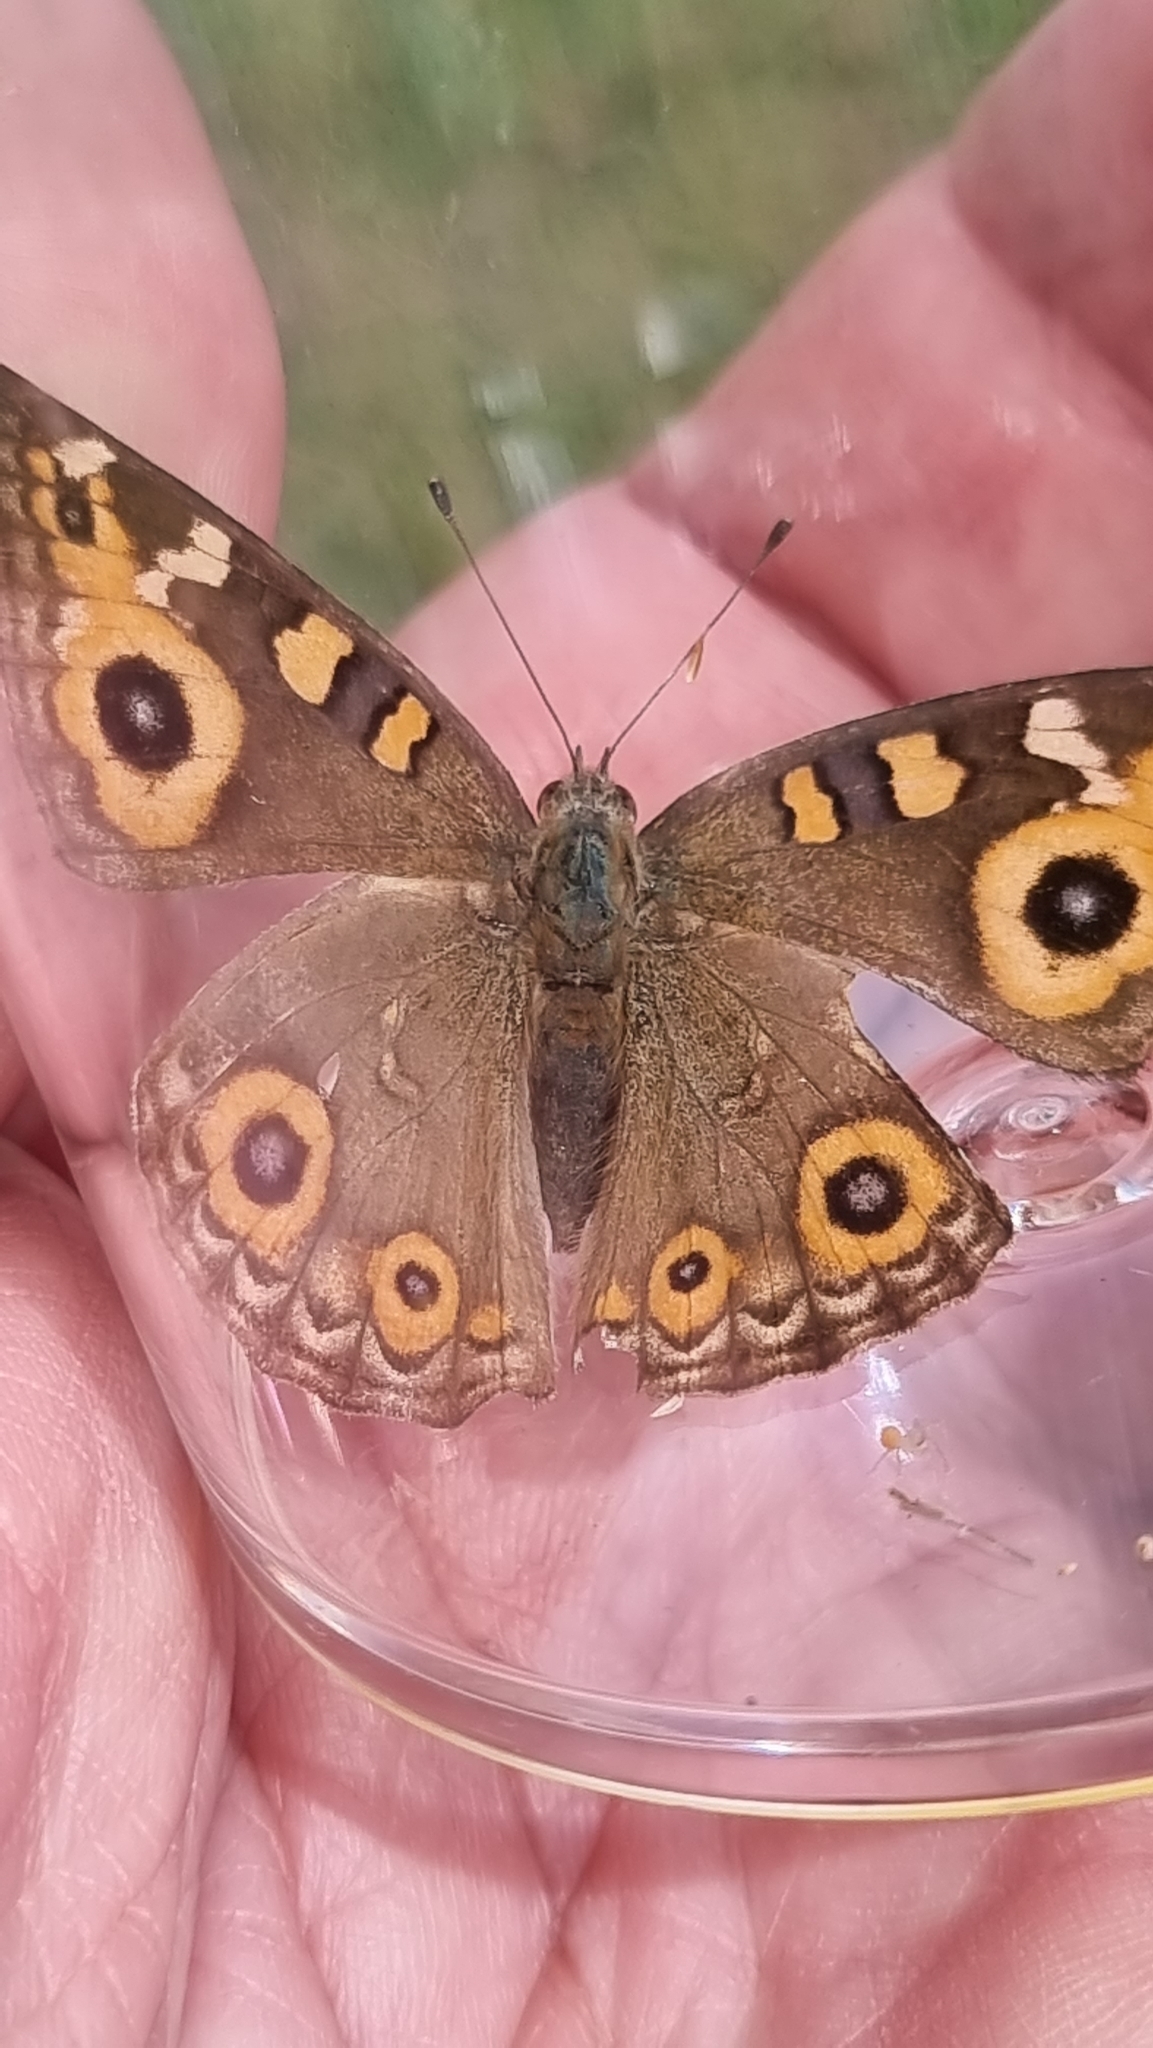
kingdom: Animalia
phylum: Arthropoda
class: Insecta
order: Lepidoptera
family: Nymphalidae
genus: Junonia
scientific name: Junonia villida
